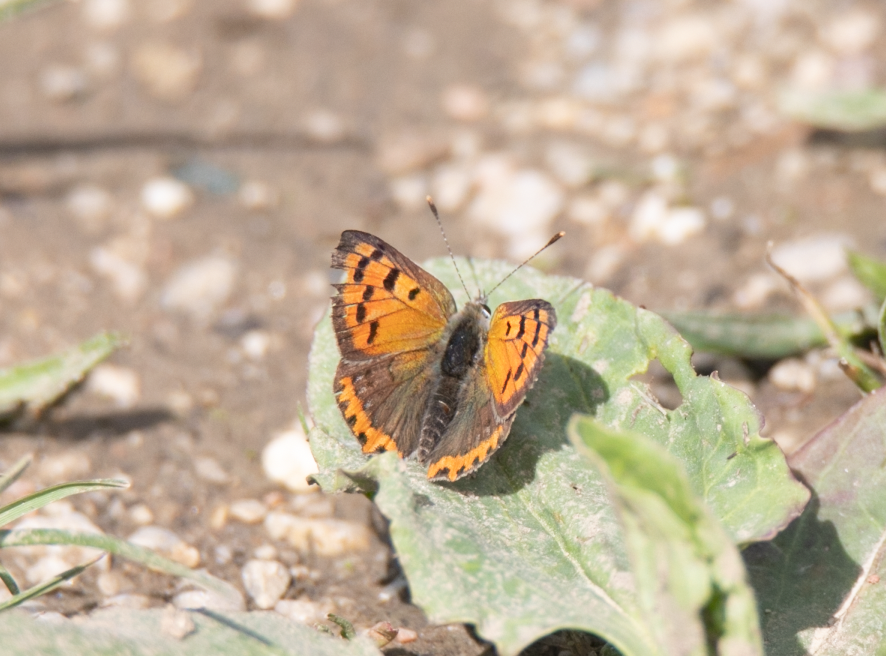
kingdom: Animalia
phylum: Arthropoda
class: Insecta
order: Lepidoptera
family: Lycaenidae
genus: Lycaena
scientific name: Lycaena phlaeas
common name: Small copper
